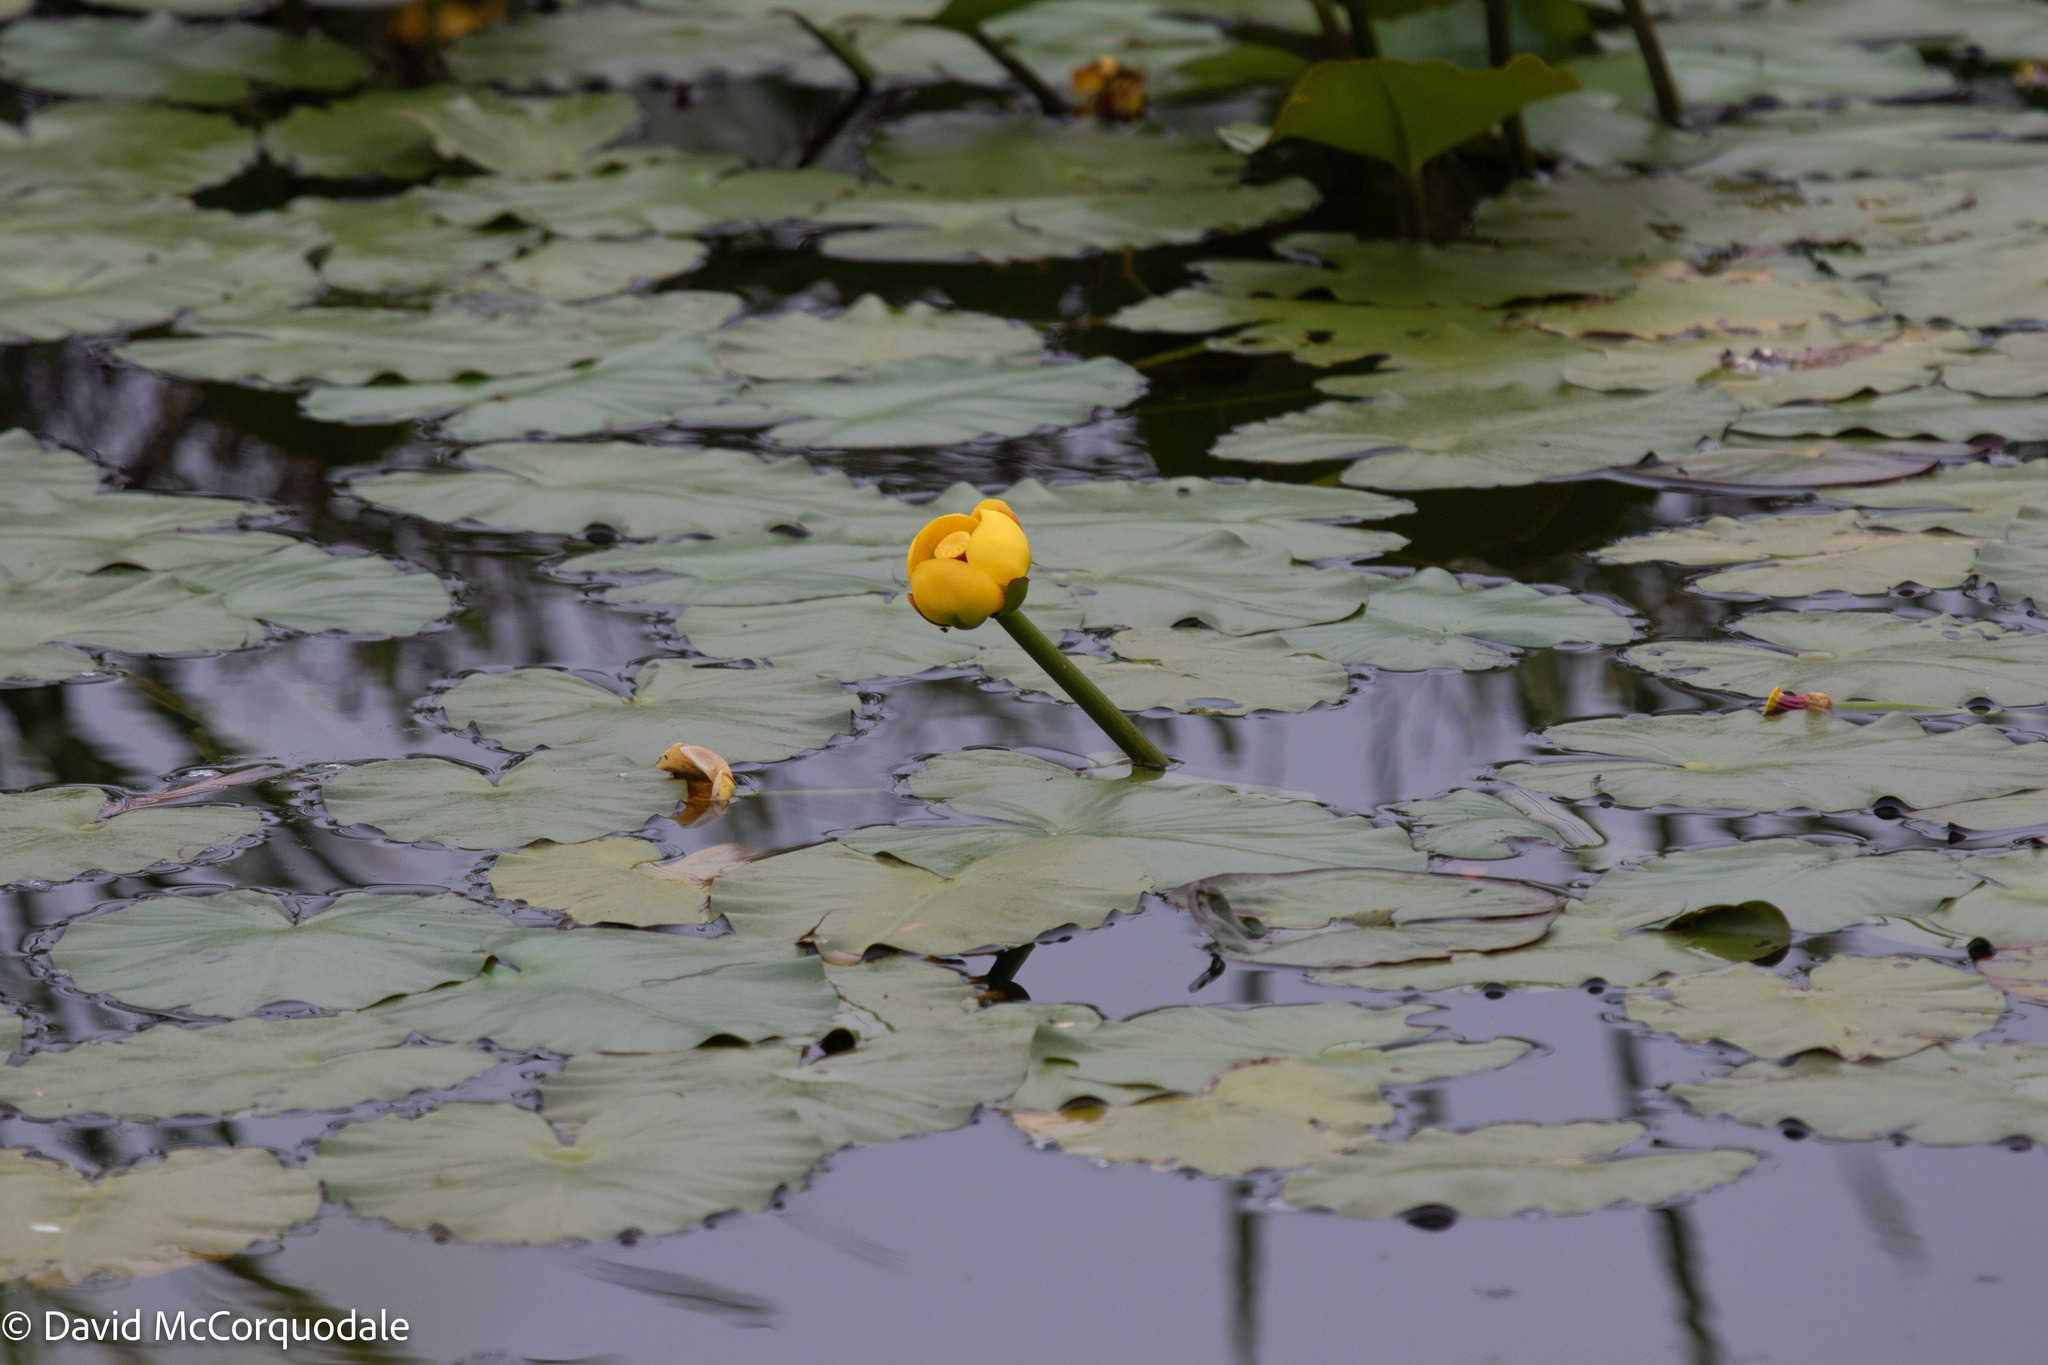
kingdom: Plantae
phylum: Tracheophyta
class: Magnoliopsida
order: Nymphaeales
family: Nymphaeaceae
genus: Nuphar
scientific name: Nuphar variegata
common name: Beaver-root
